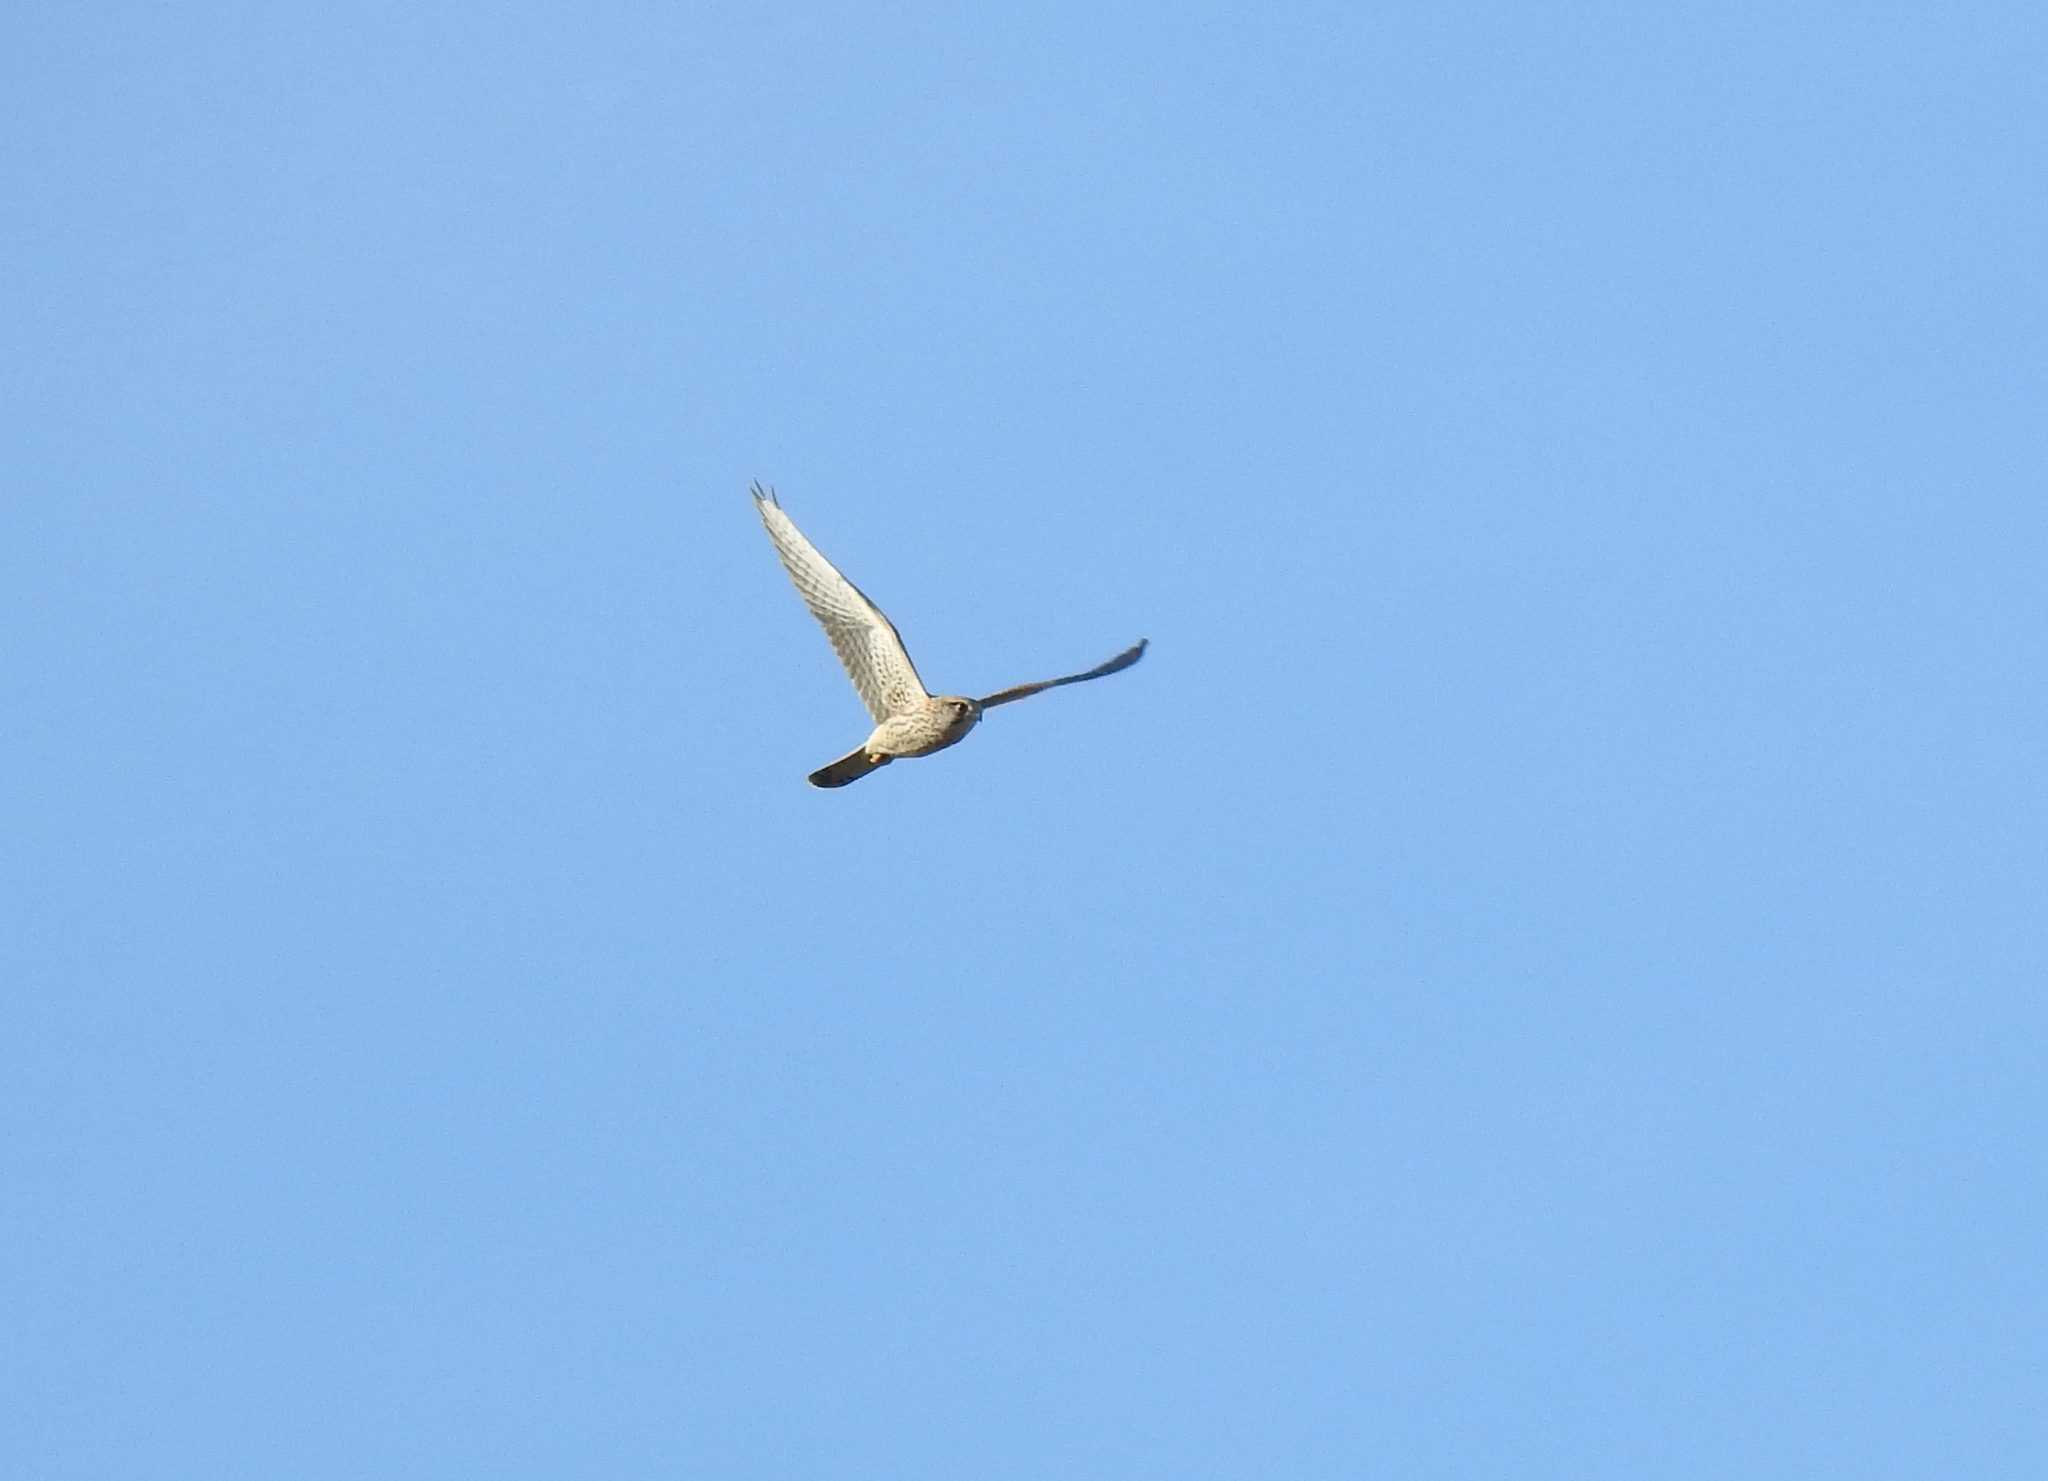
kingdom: Animalia
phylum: Chordata
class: Aves
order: Falconiformes
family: Falconidae
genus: Falco
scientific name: Falco tinnunculus
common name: Common kestrel
